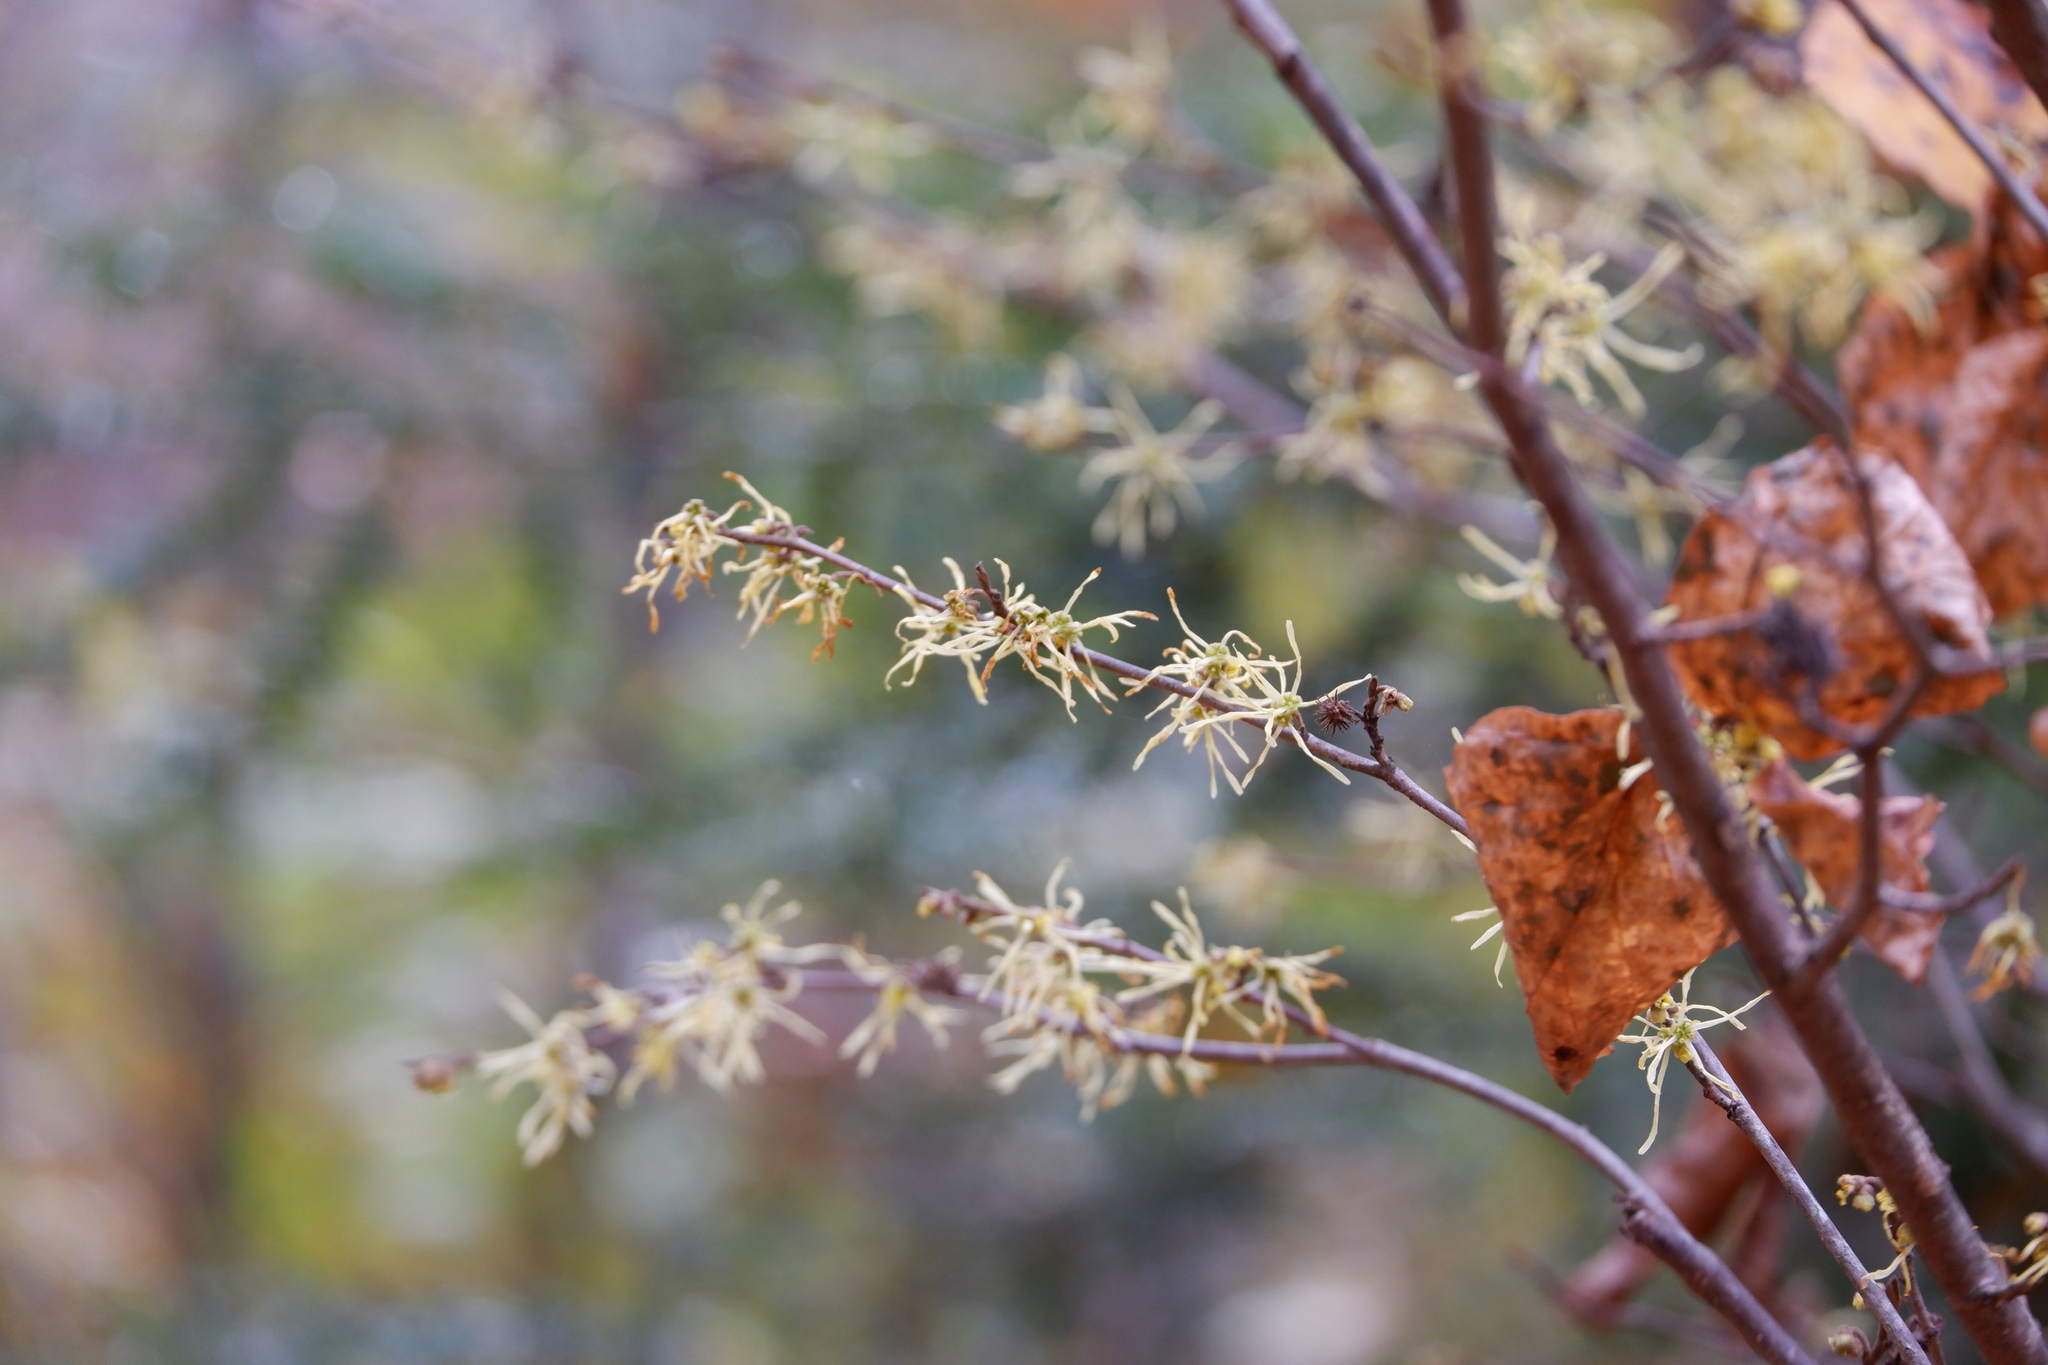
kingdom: Animalia
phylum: Arthropoda
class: Insecta
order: Hemiptera
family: Aphididae
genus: Hamamelistes
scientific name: Hamamelistes spinosus
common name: Witch hazel gall aphid
